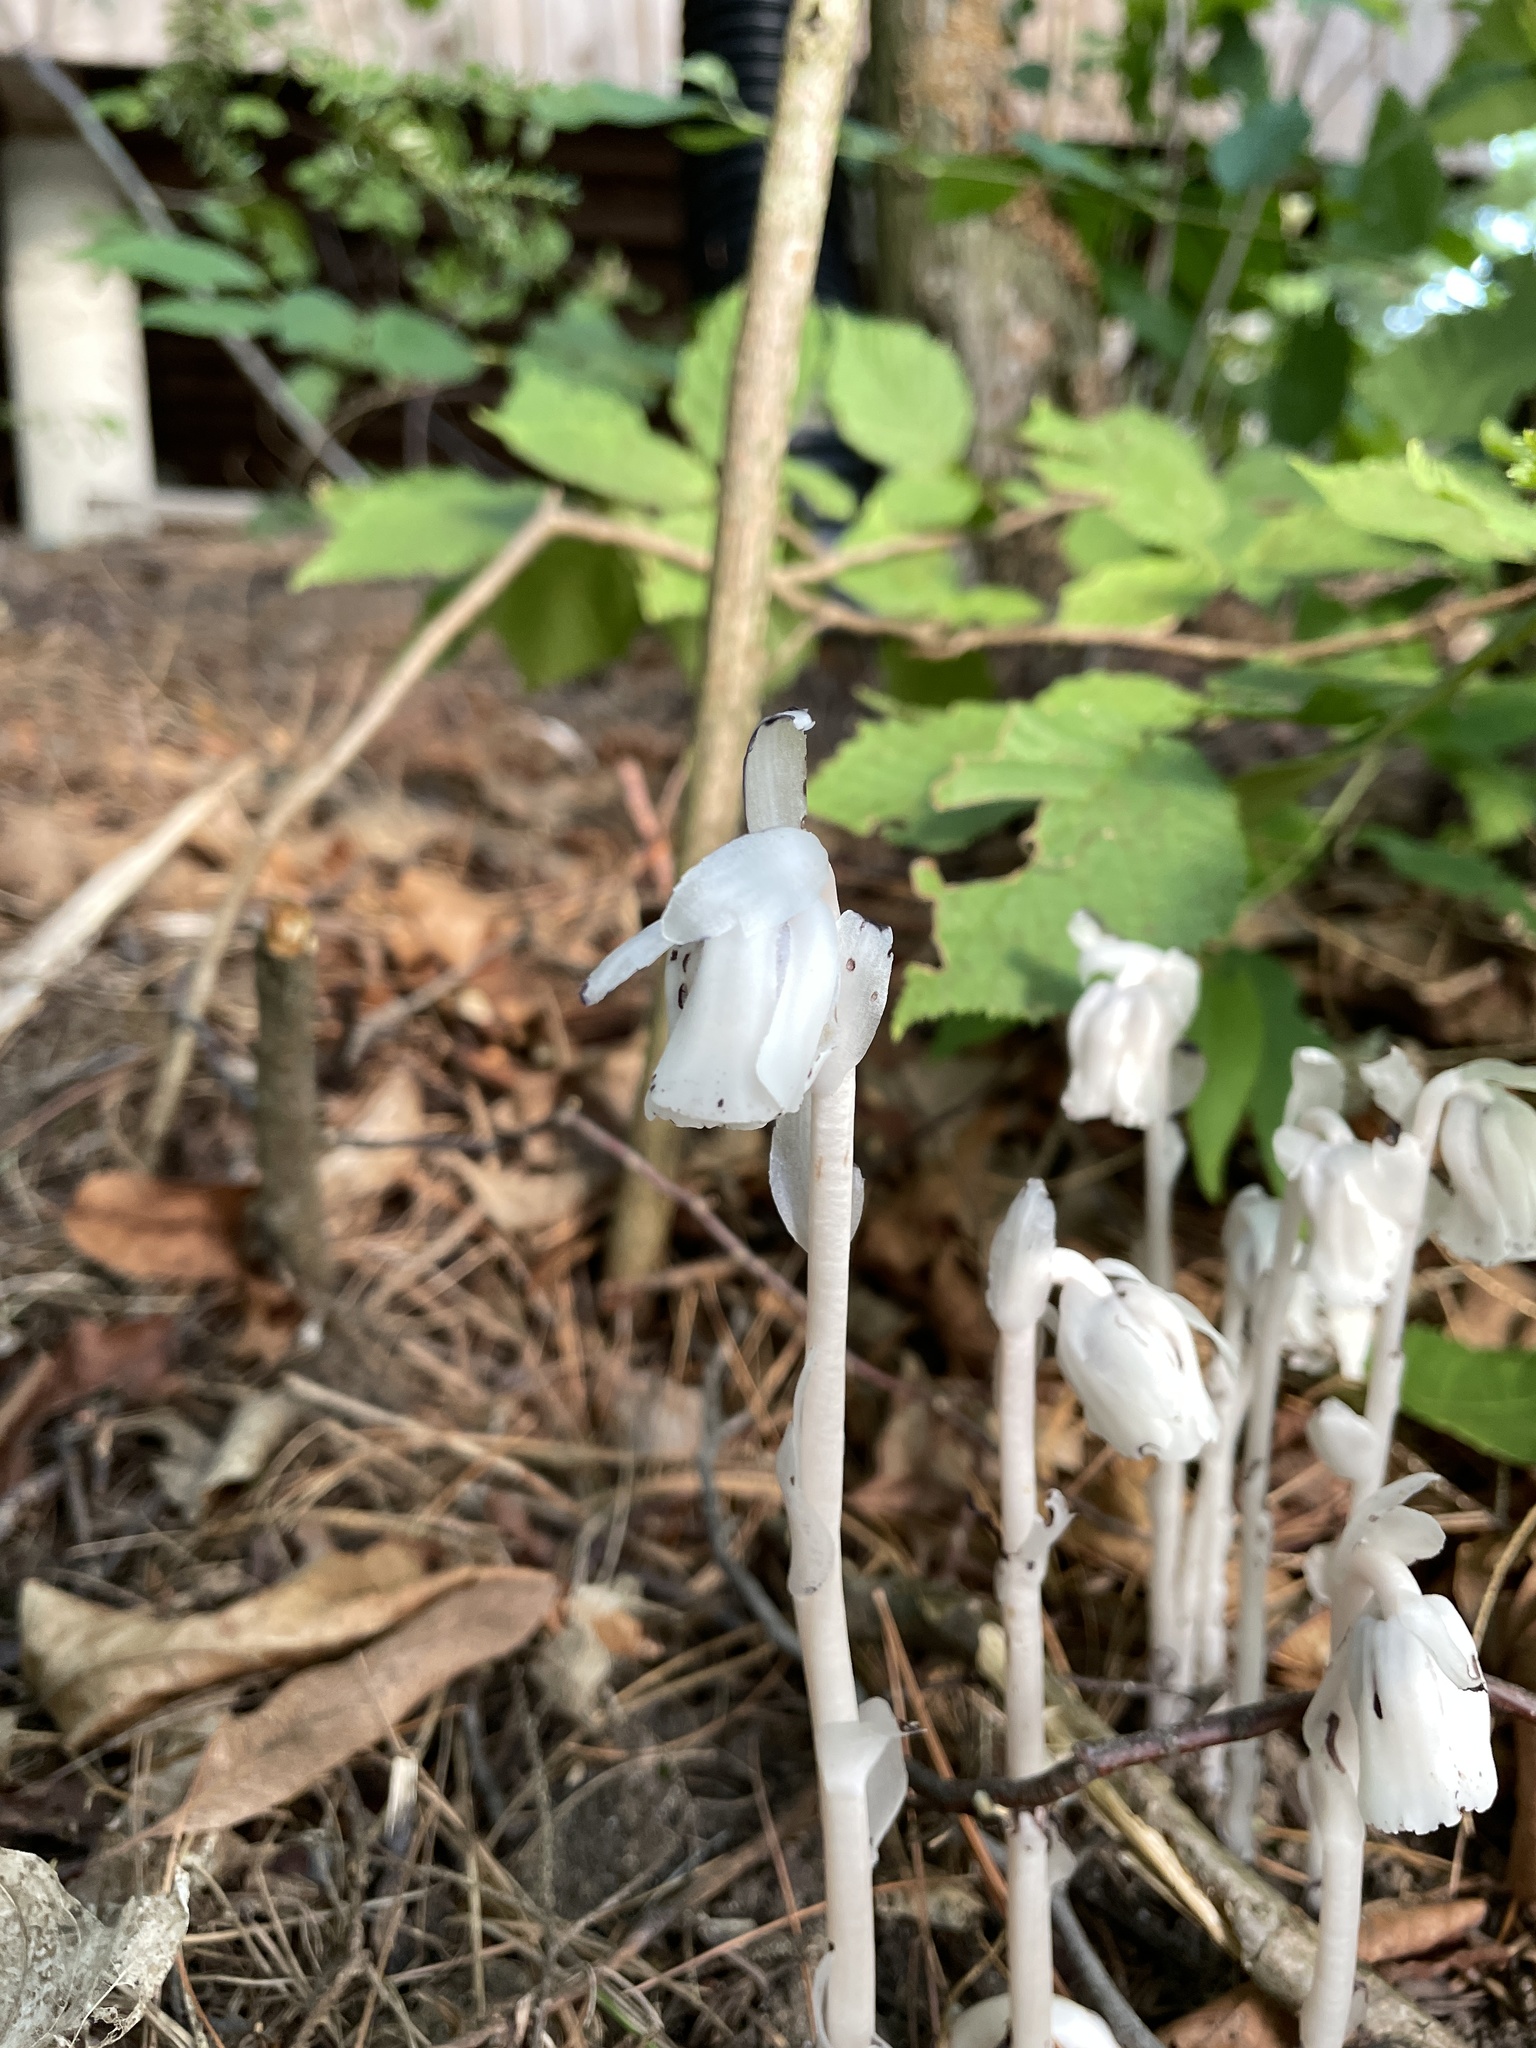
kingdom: Plantae
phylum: Tracheophyta
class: Magnoliopsida
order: Ericales
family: Ericaceae
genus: Monotropa
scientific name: Monotropa uniflora
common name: Convulsion root
